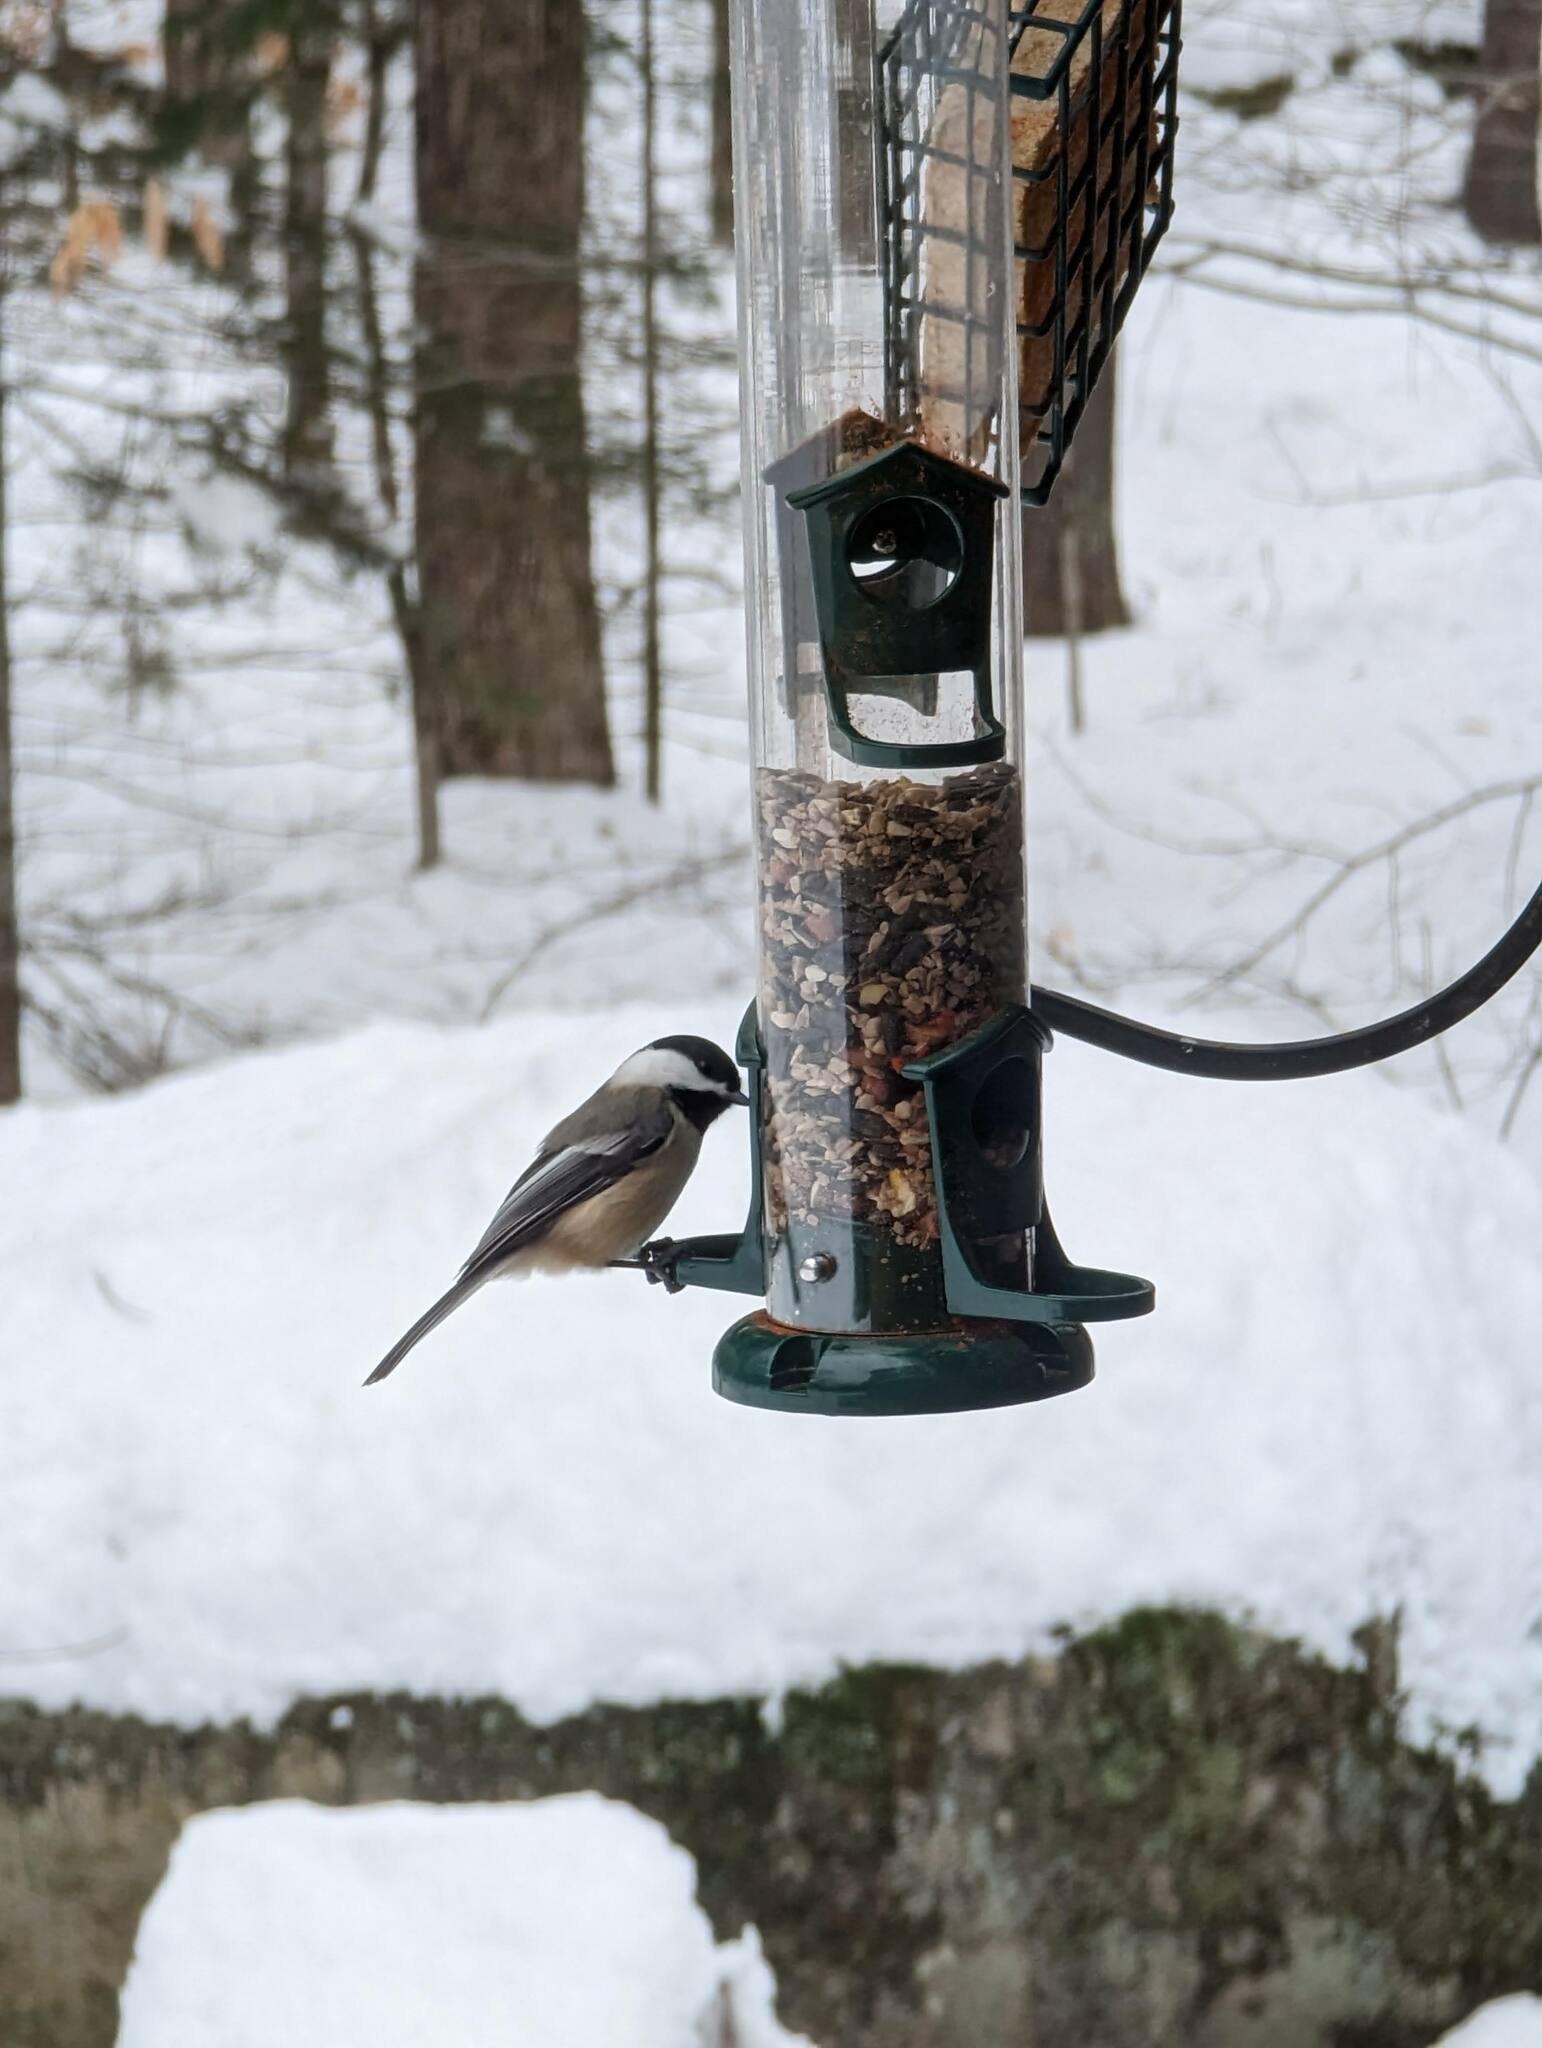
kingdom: Animalia
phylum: Chordata
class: Aves
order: Passeriformes
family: Paridae
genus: Poecile
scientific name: Poecile atricapillus
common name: Black-capped chickadee
